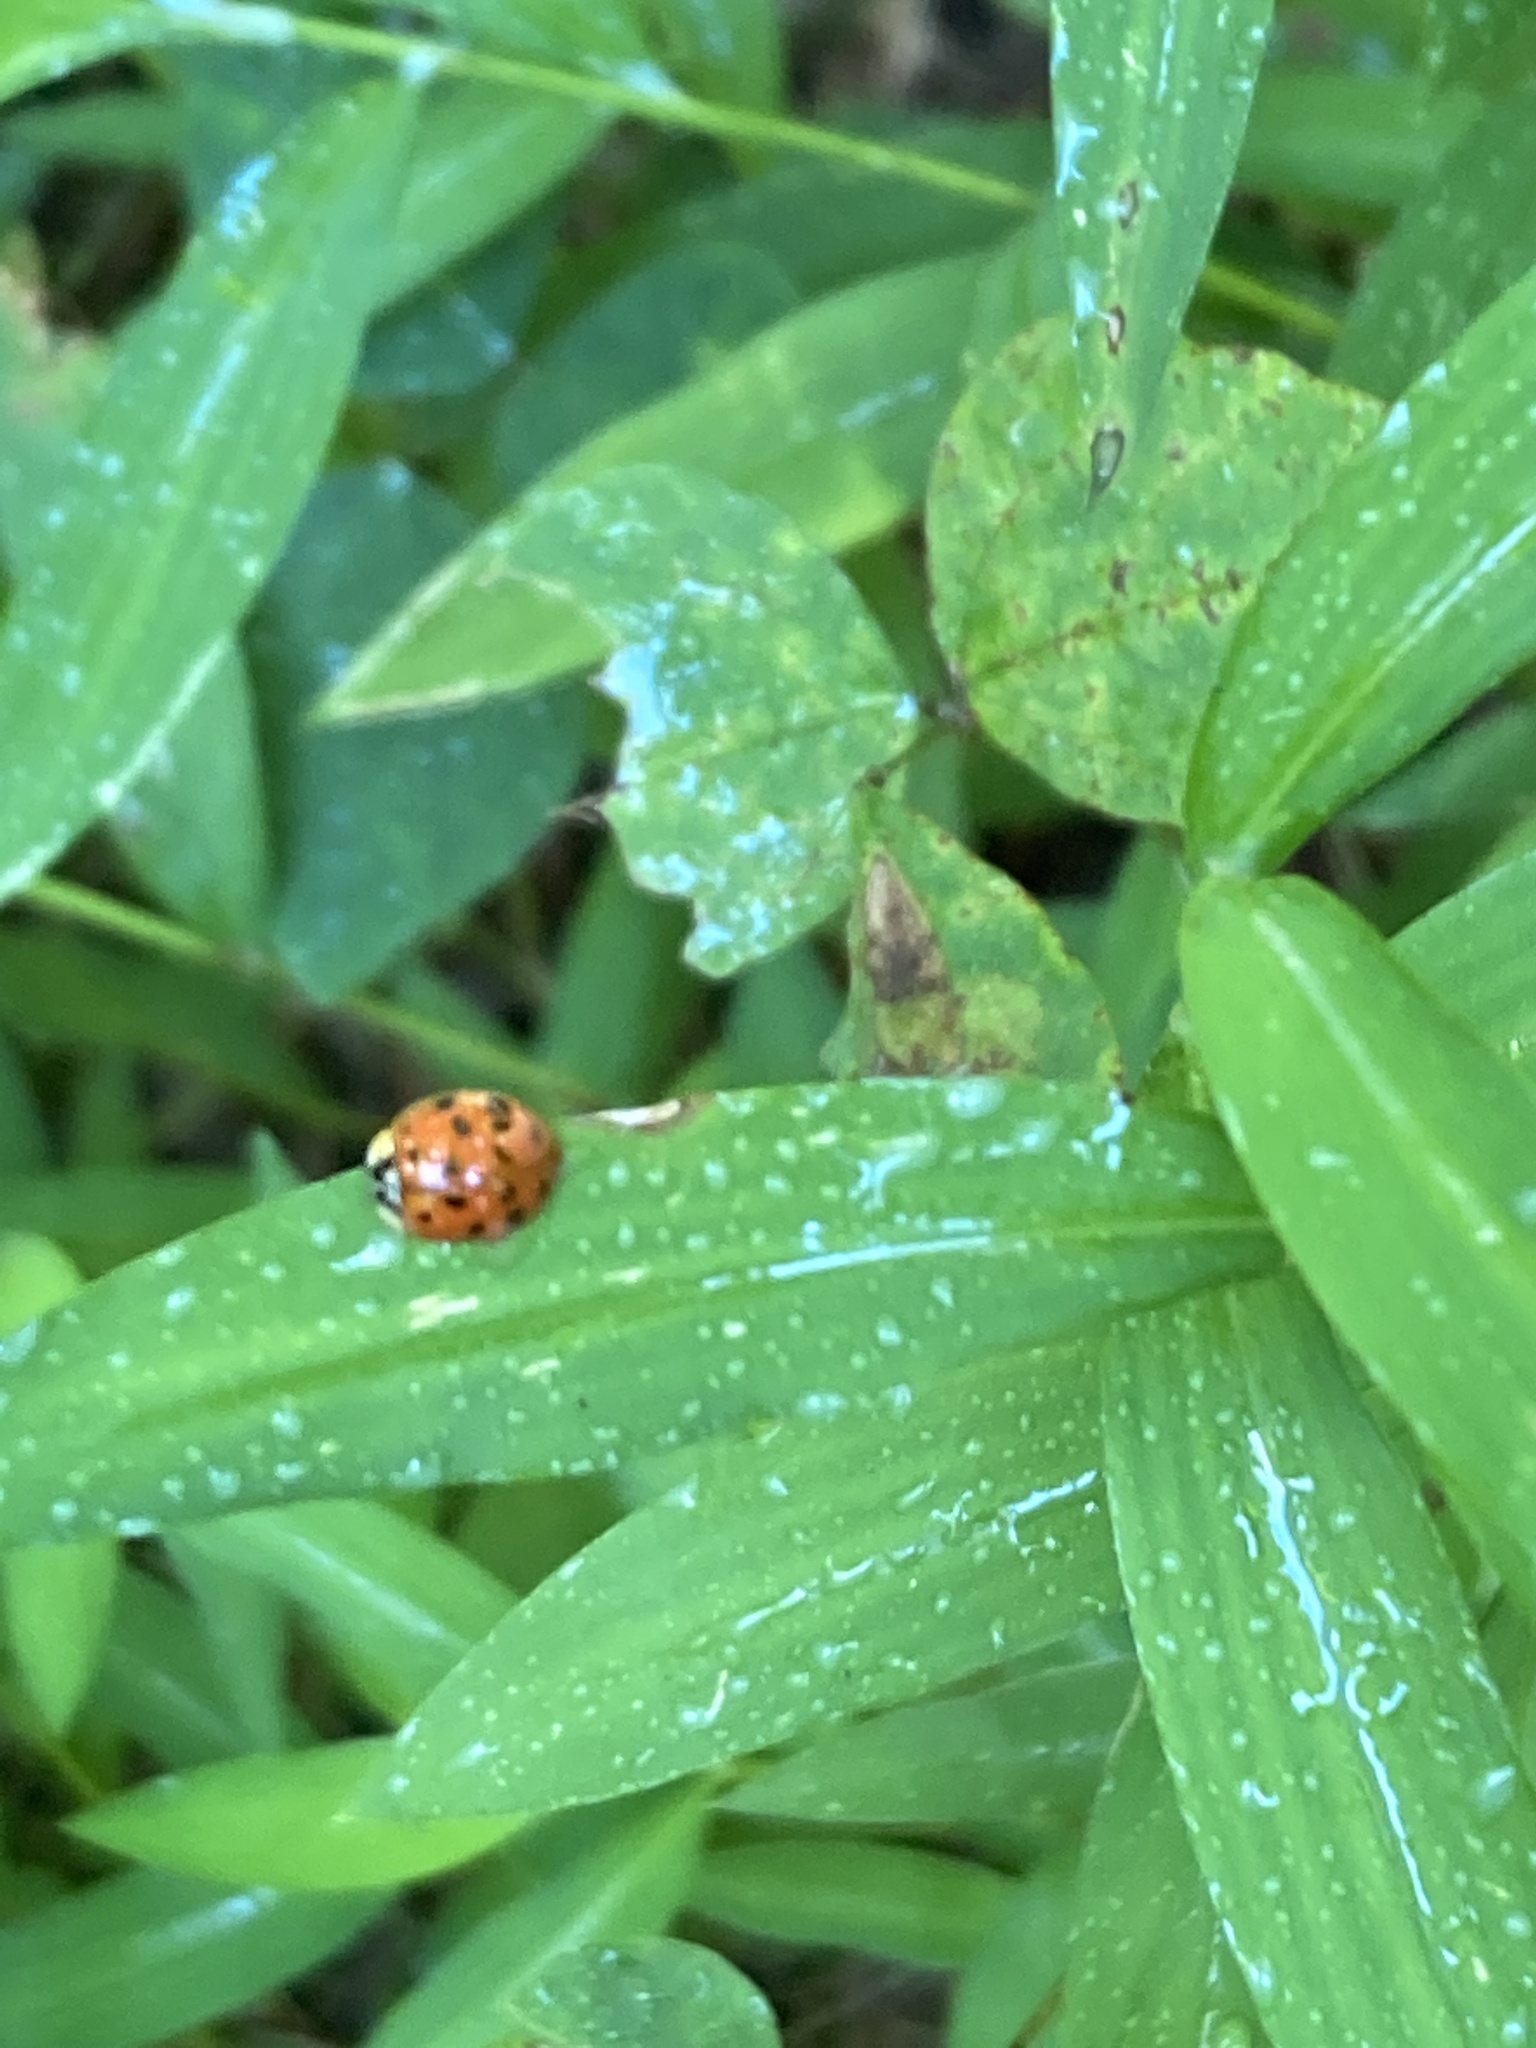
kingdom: Animalia
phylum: Arthropoda
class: Insecta
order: Coleoptera
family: Coccinellidae
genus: Harmonia
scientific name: Harmonia axyridis
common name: Harlequin ladybird
